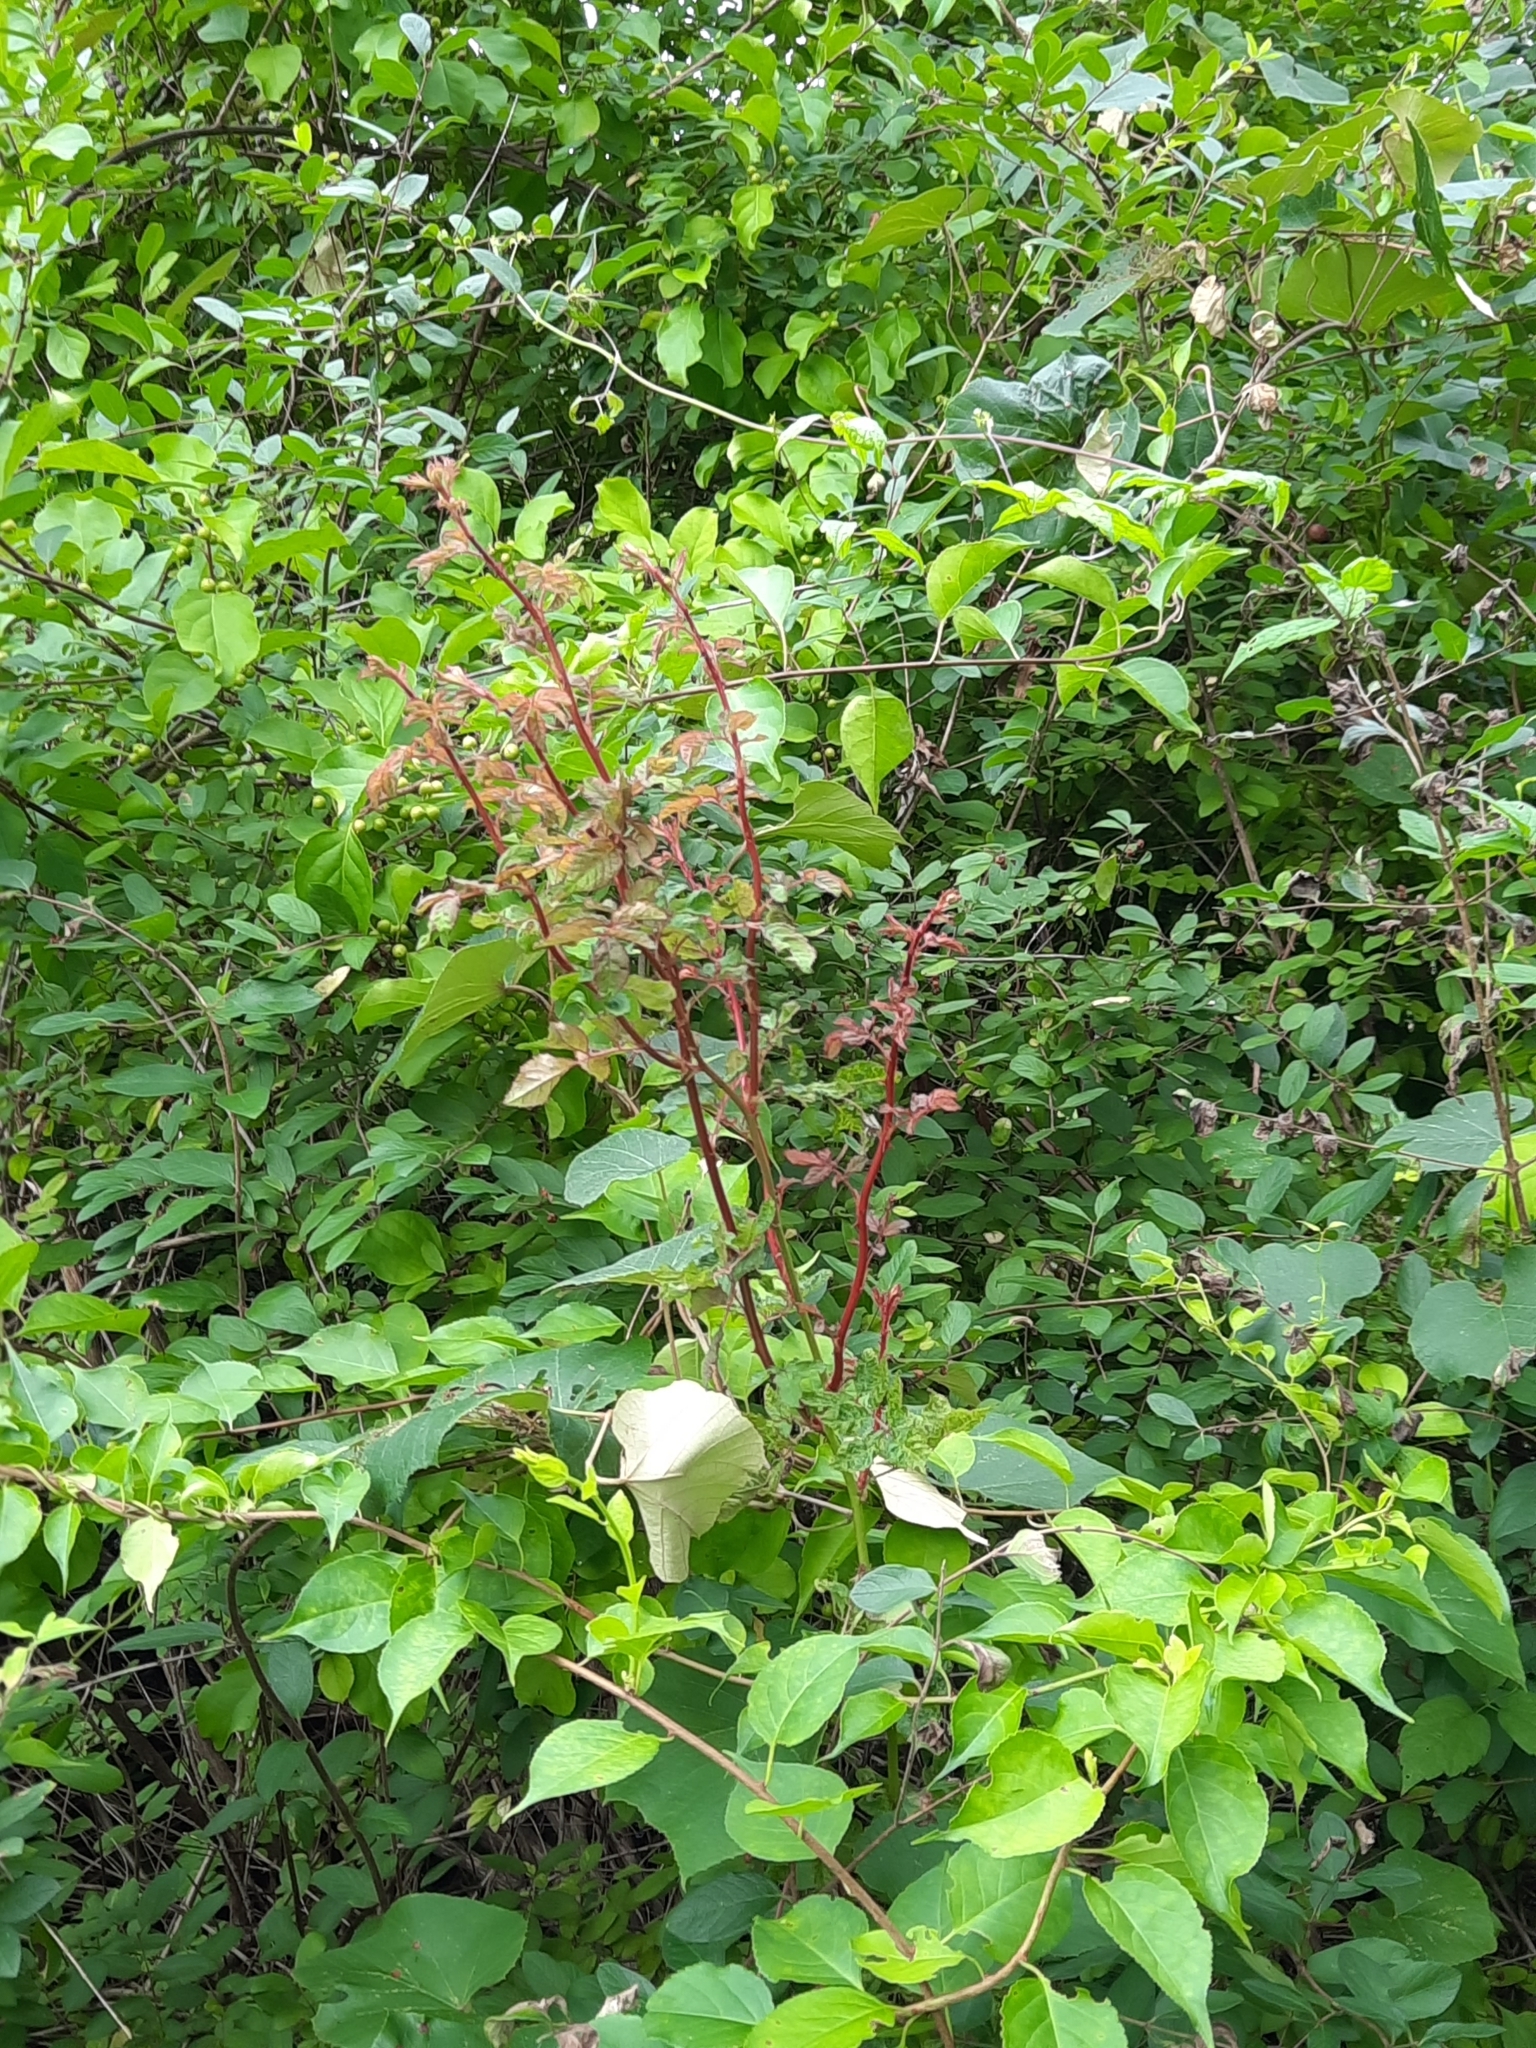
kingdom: Viruses
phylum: Negarnaviricota
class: Ellioviricetes
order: Bunyavirales
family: Fimoviridae
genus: Emaravirus
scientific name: Emaravirus rosae
